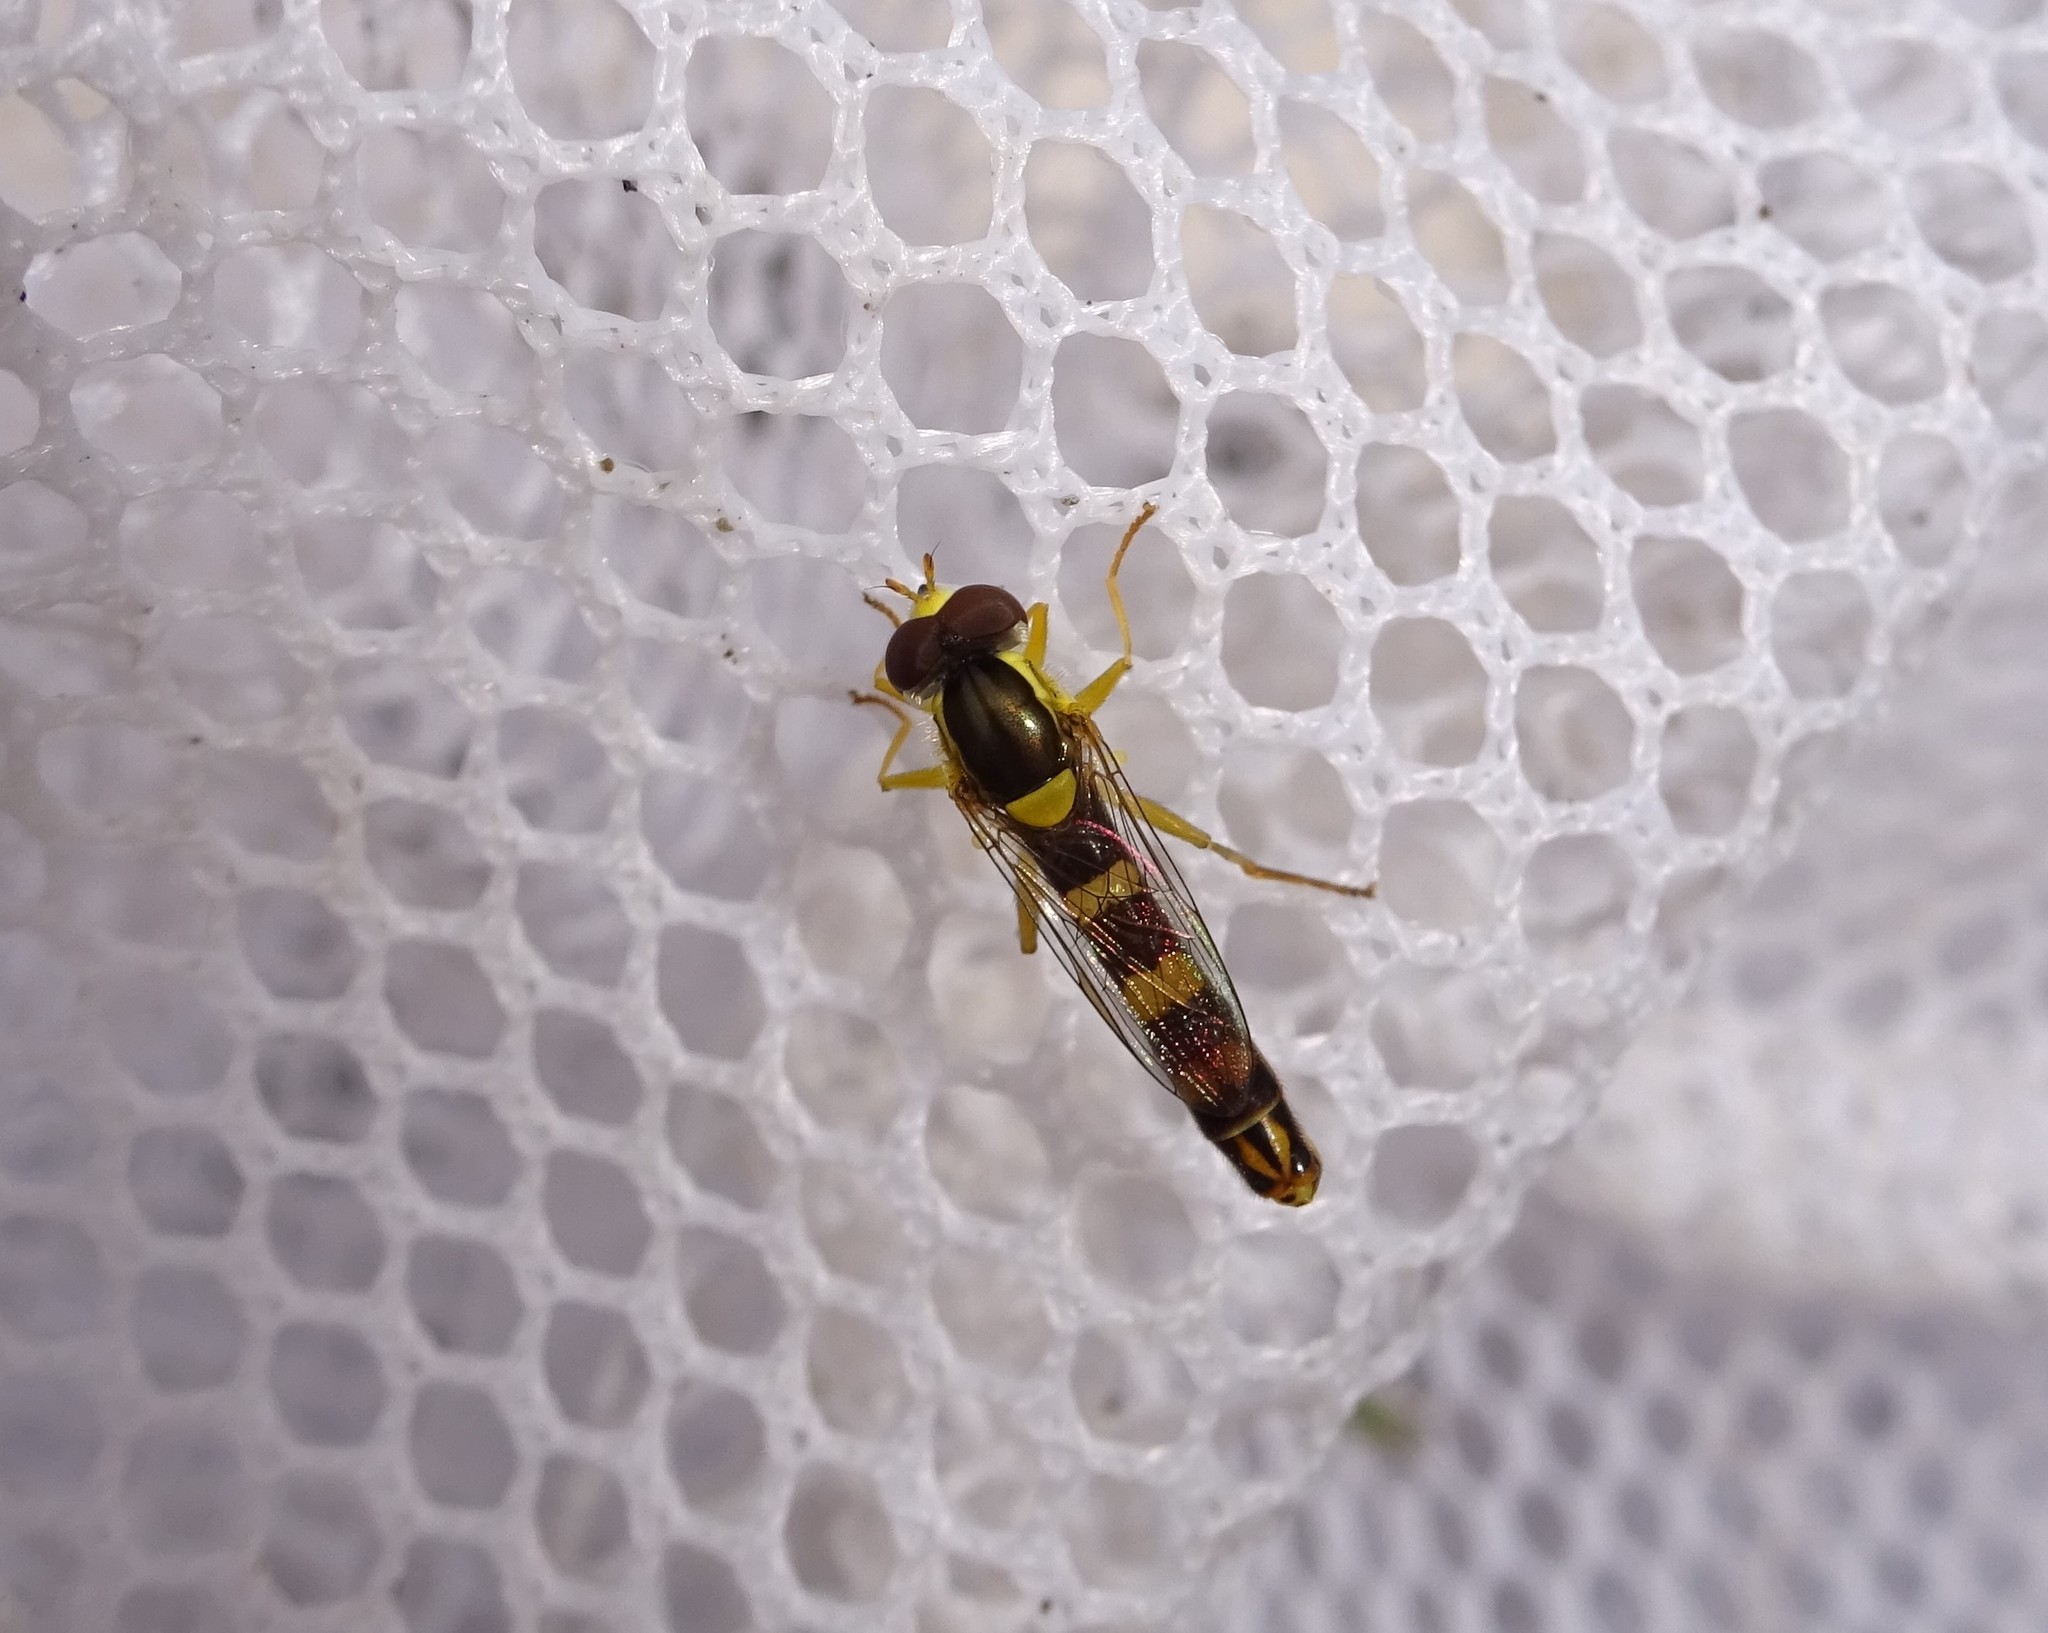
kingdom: Animalia
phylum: Arthropoda
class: Insecta
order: Diptera
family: Syrphidae
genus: Sphaerophoria
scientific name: Sphaerophoria scripta
